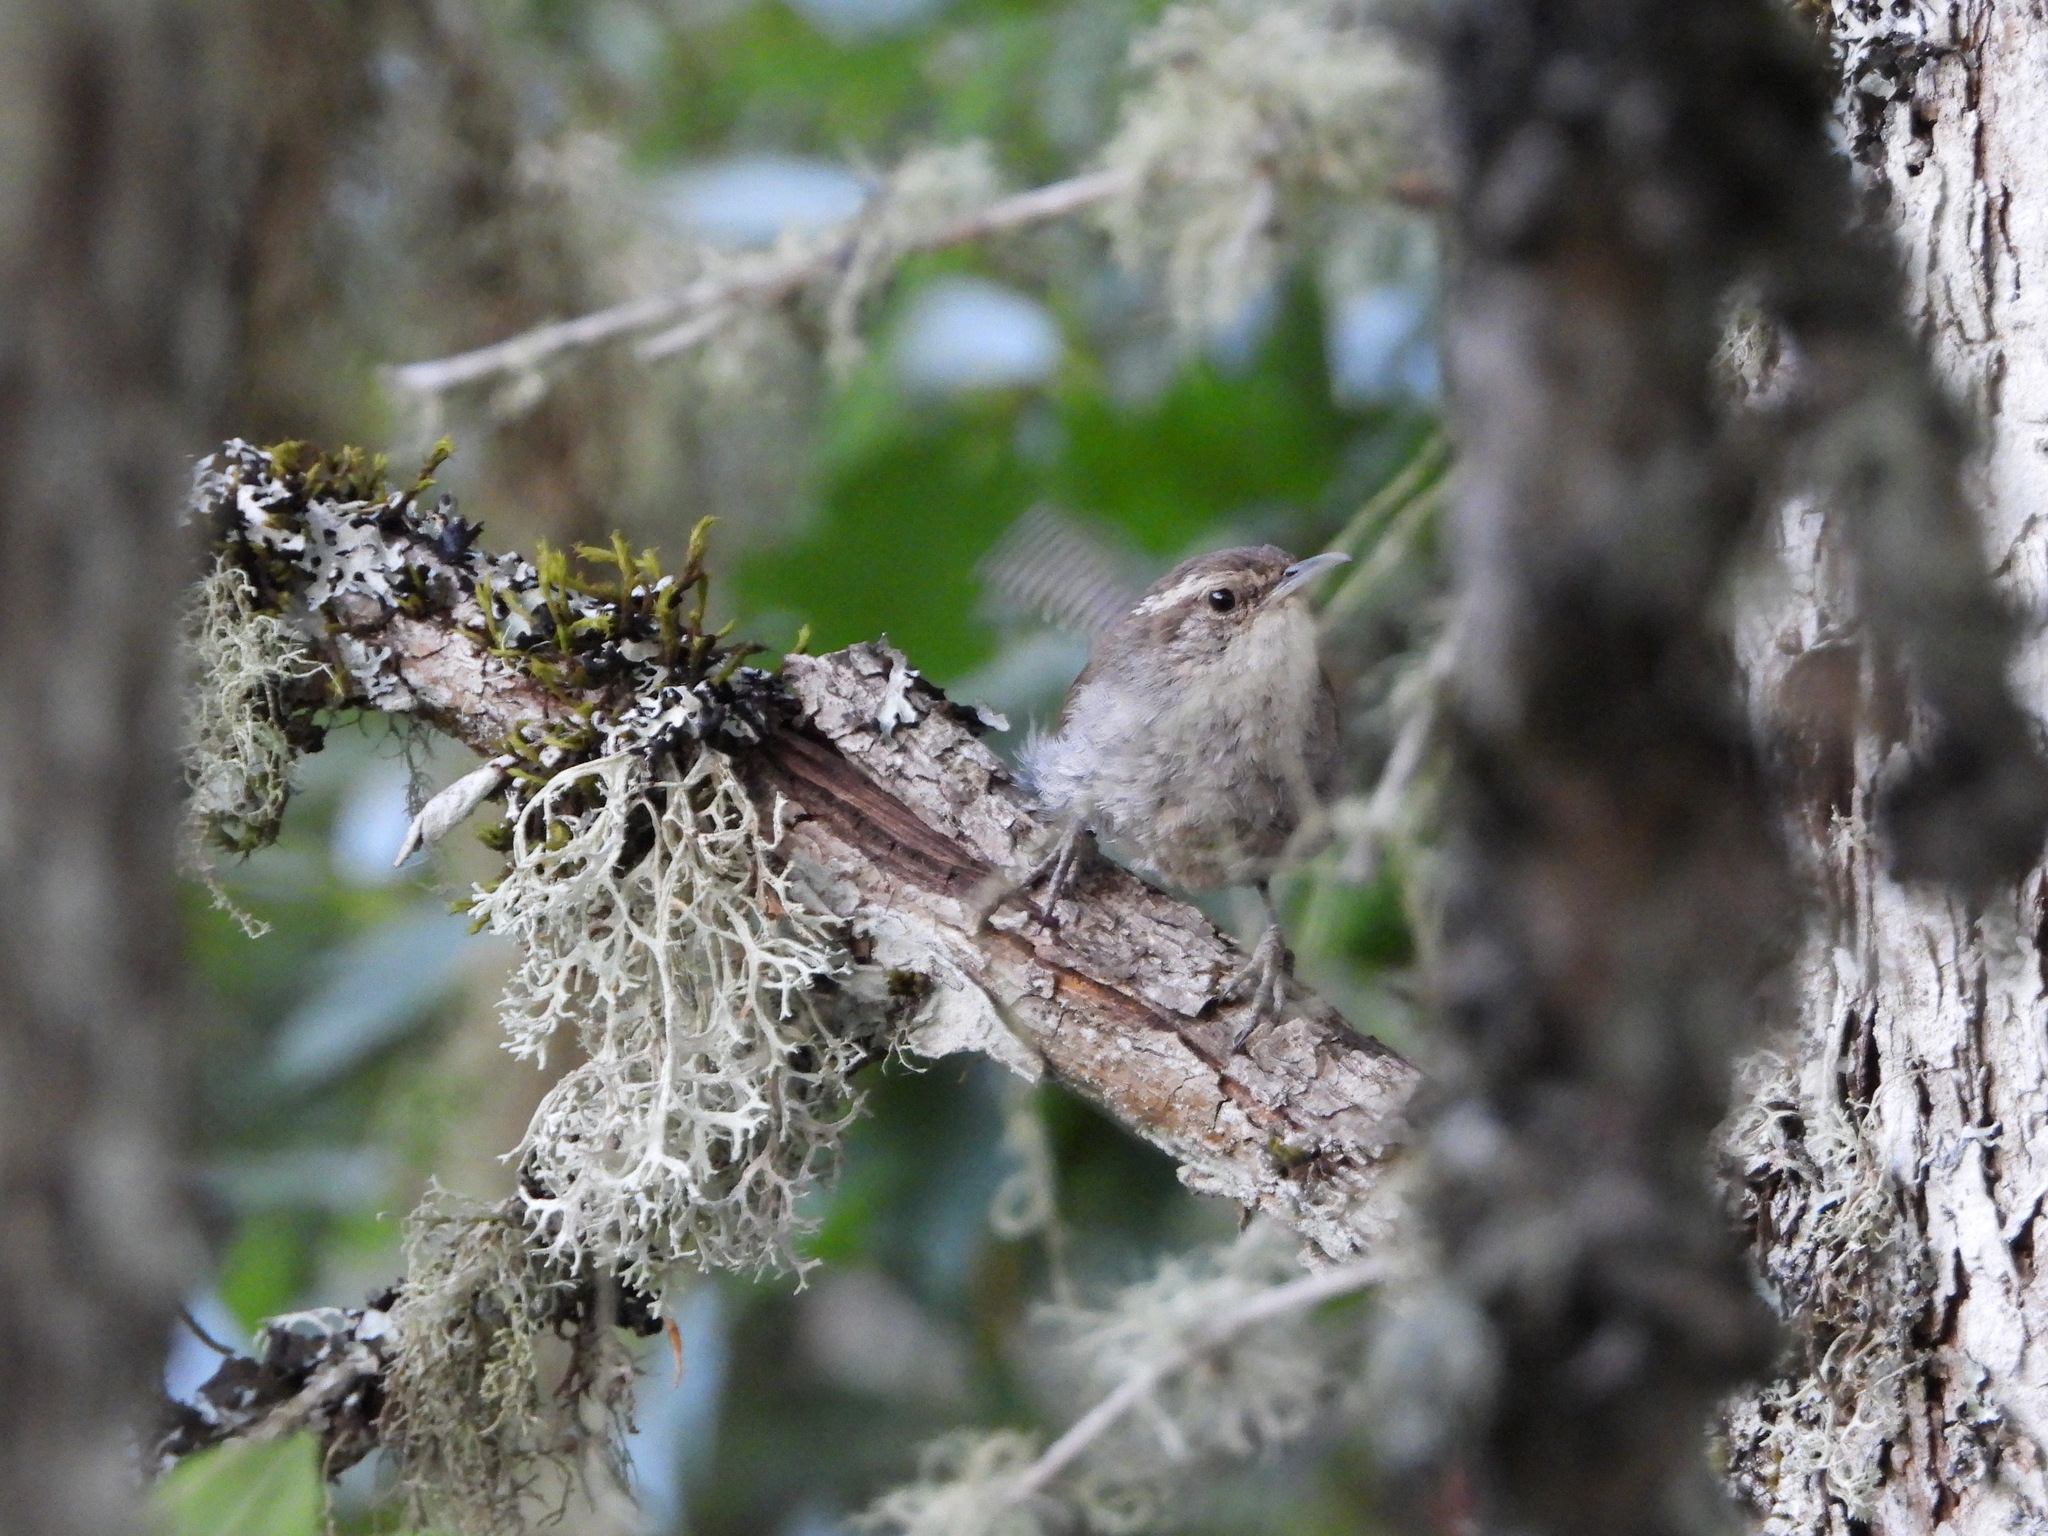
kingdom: Animalia
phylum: Chordata
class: Aves
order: Passeriformes
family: Troglodytidae
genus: Thryomanes
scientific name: Thryomanes bewickii
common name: Bewick's wren
